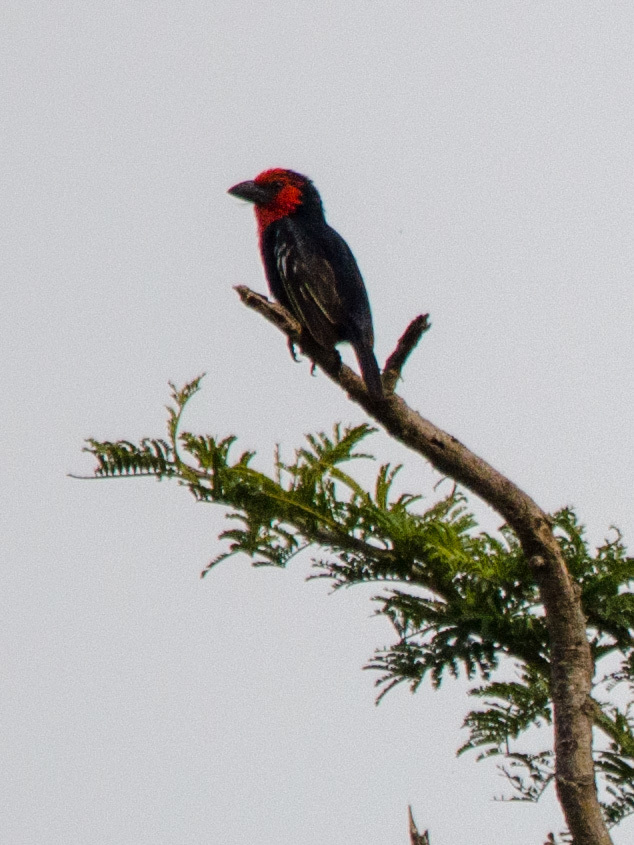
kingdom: Animalia
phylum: Chordata
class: Aves
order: Piciformes
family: Lybiidae
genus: Lybius
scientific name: Lybius guifsobalito
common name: Black-billed barbet
